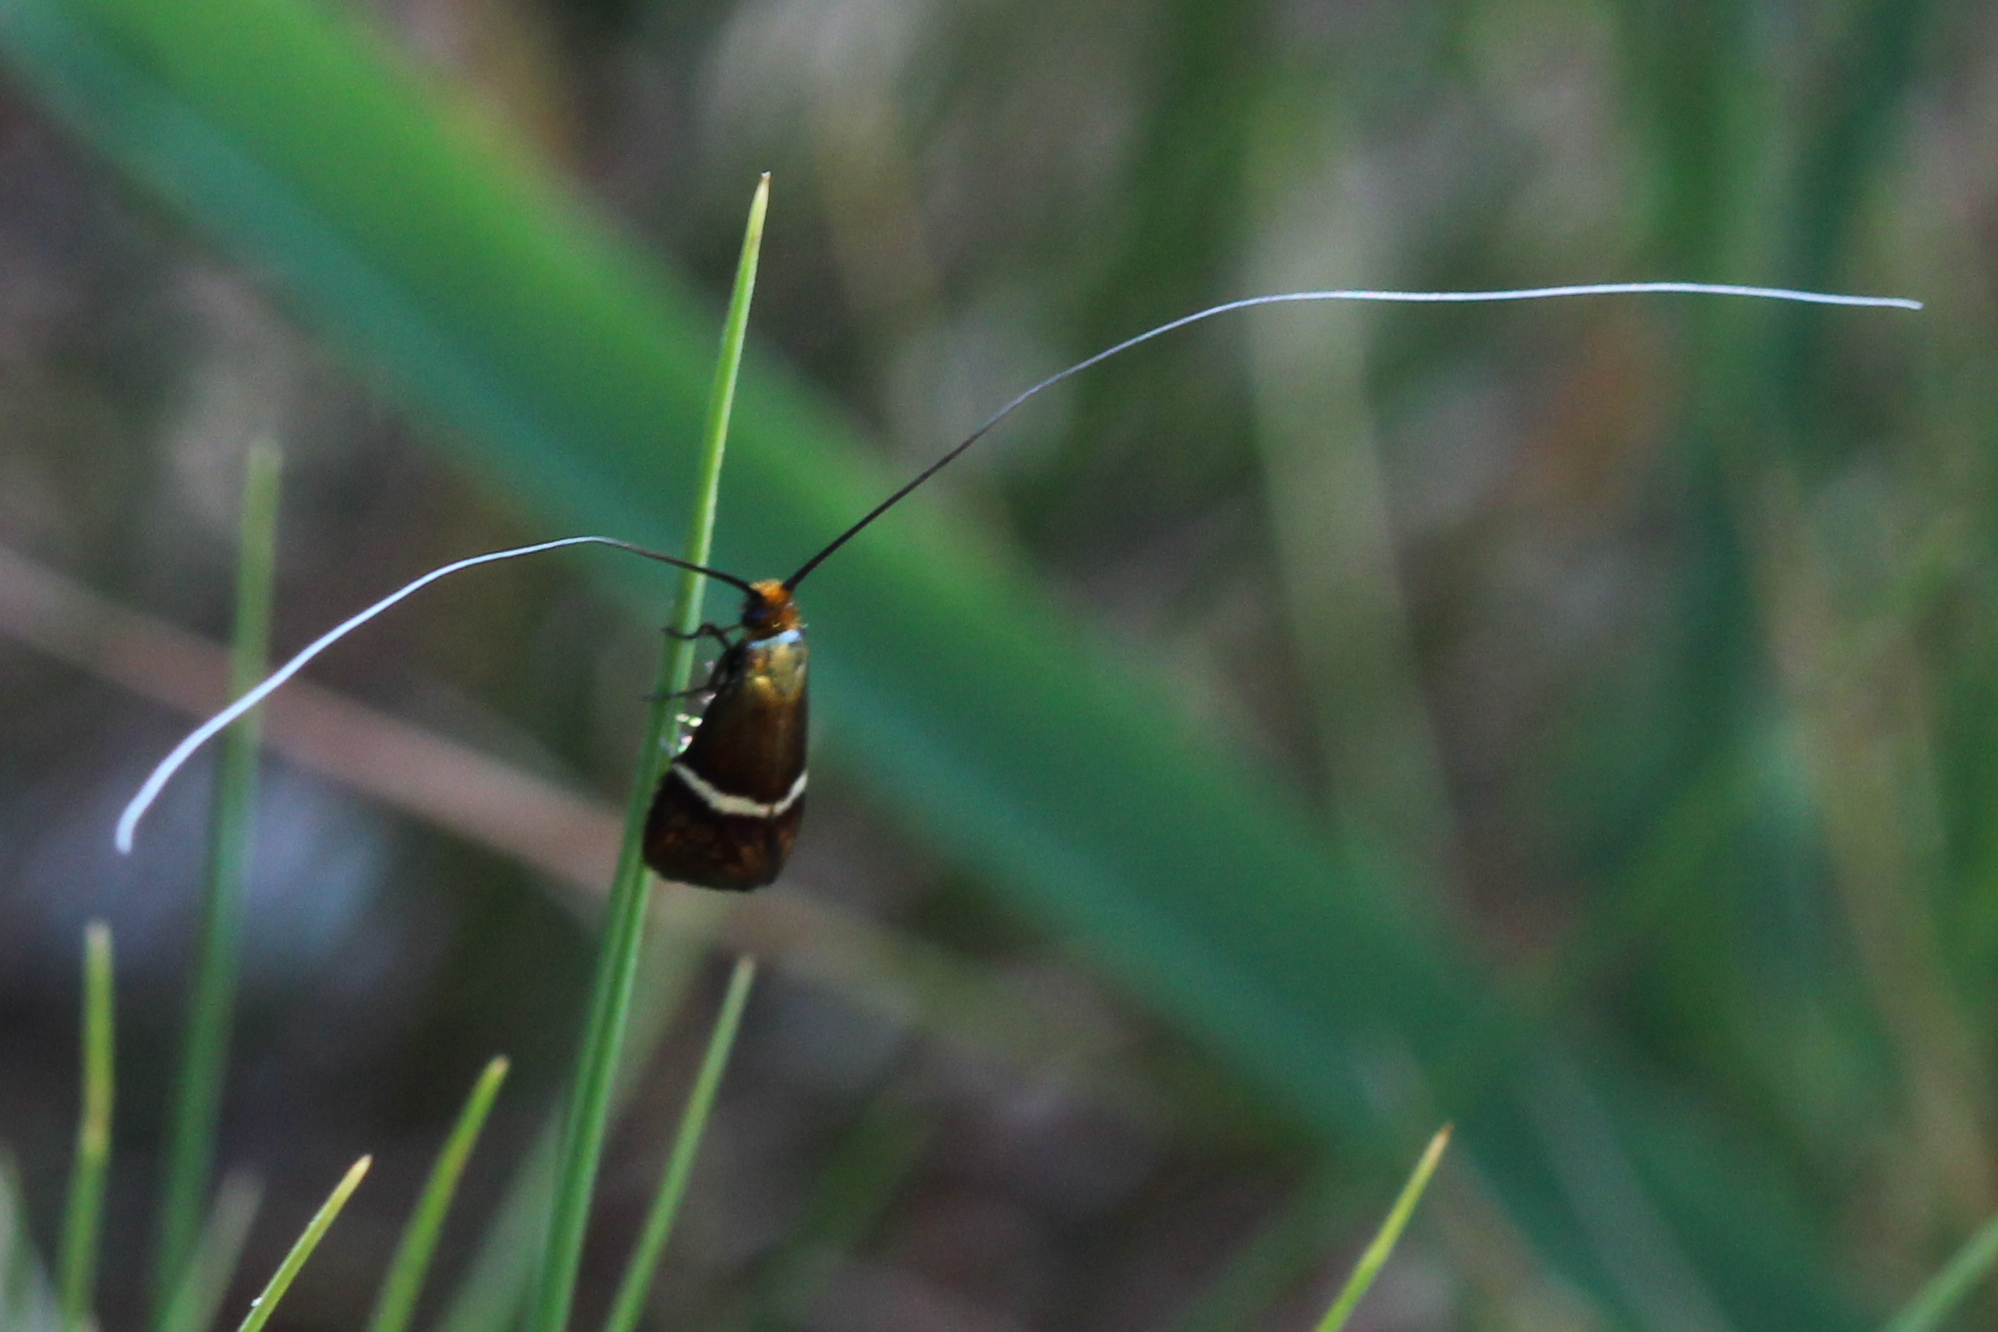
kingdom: Animalia
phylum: Arthropoda
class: Insecta
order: Lepidoptera
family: Adelidae
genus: Adela
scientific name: Adela australis
